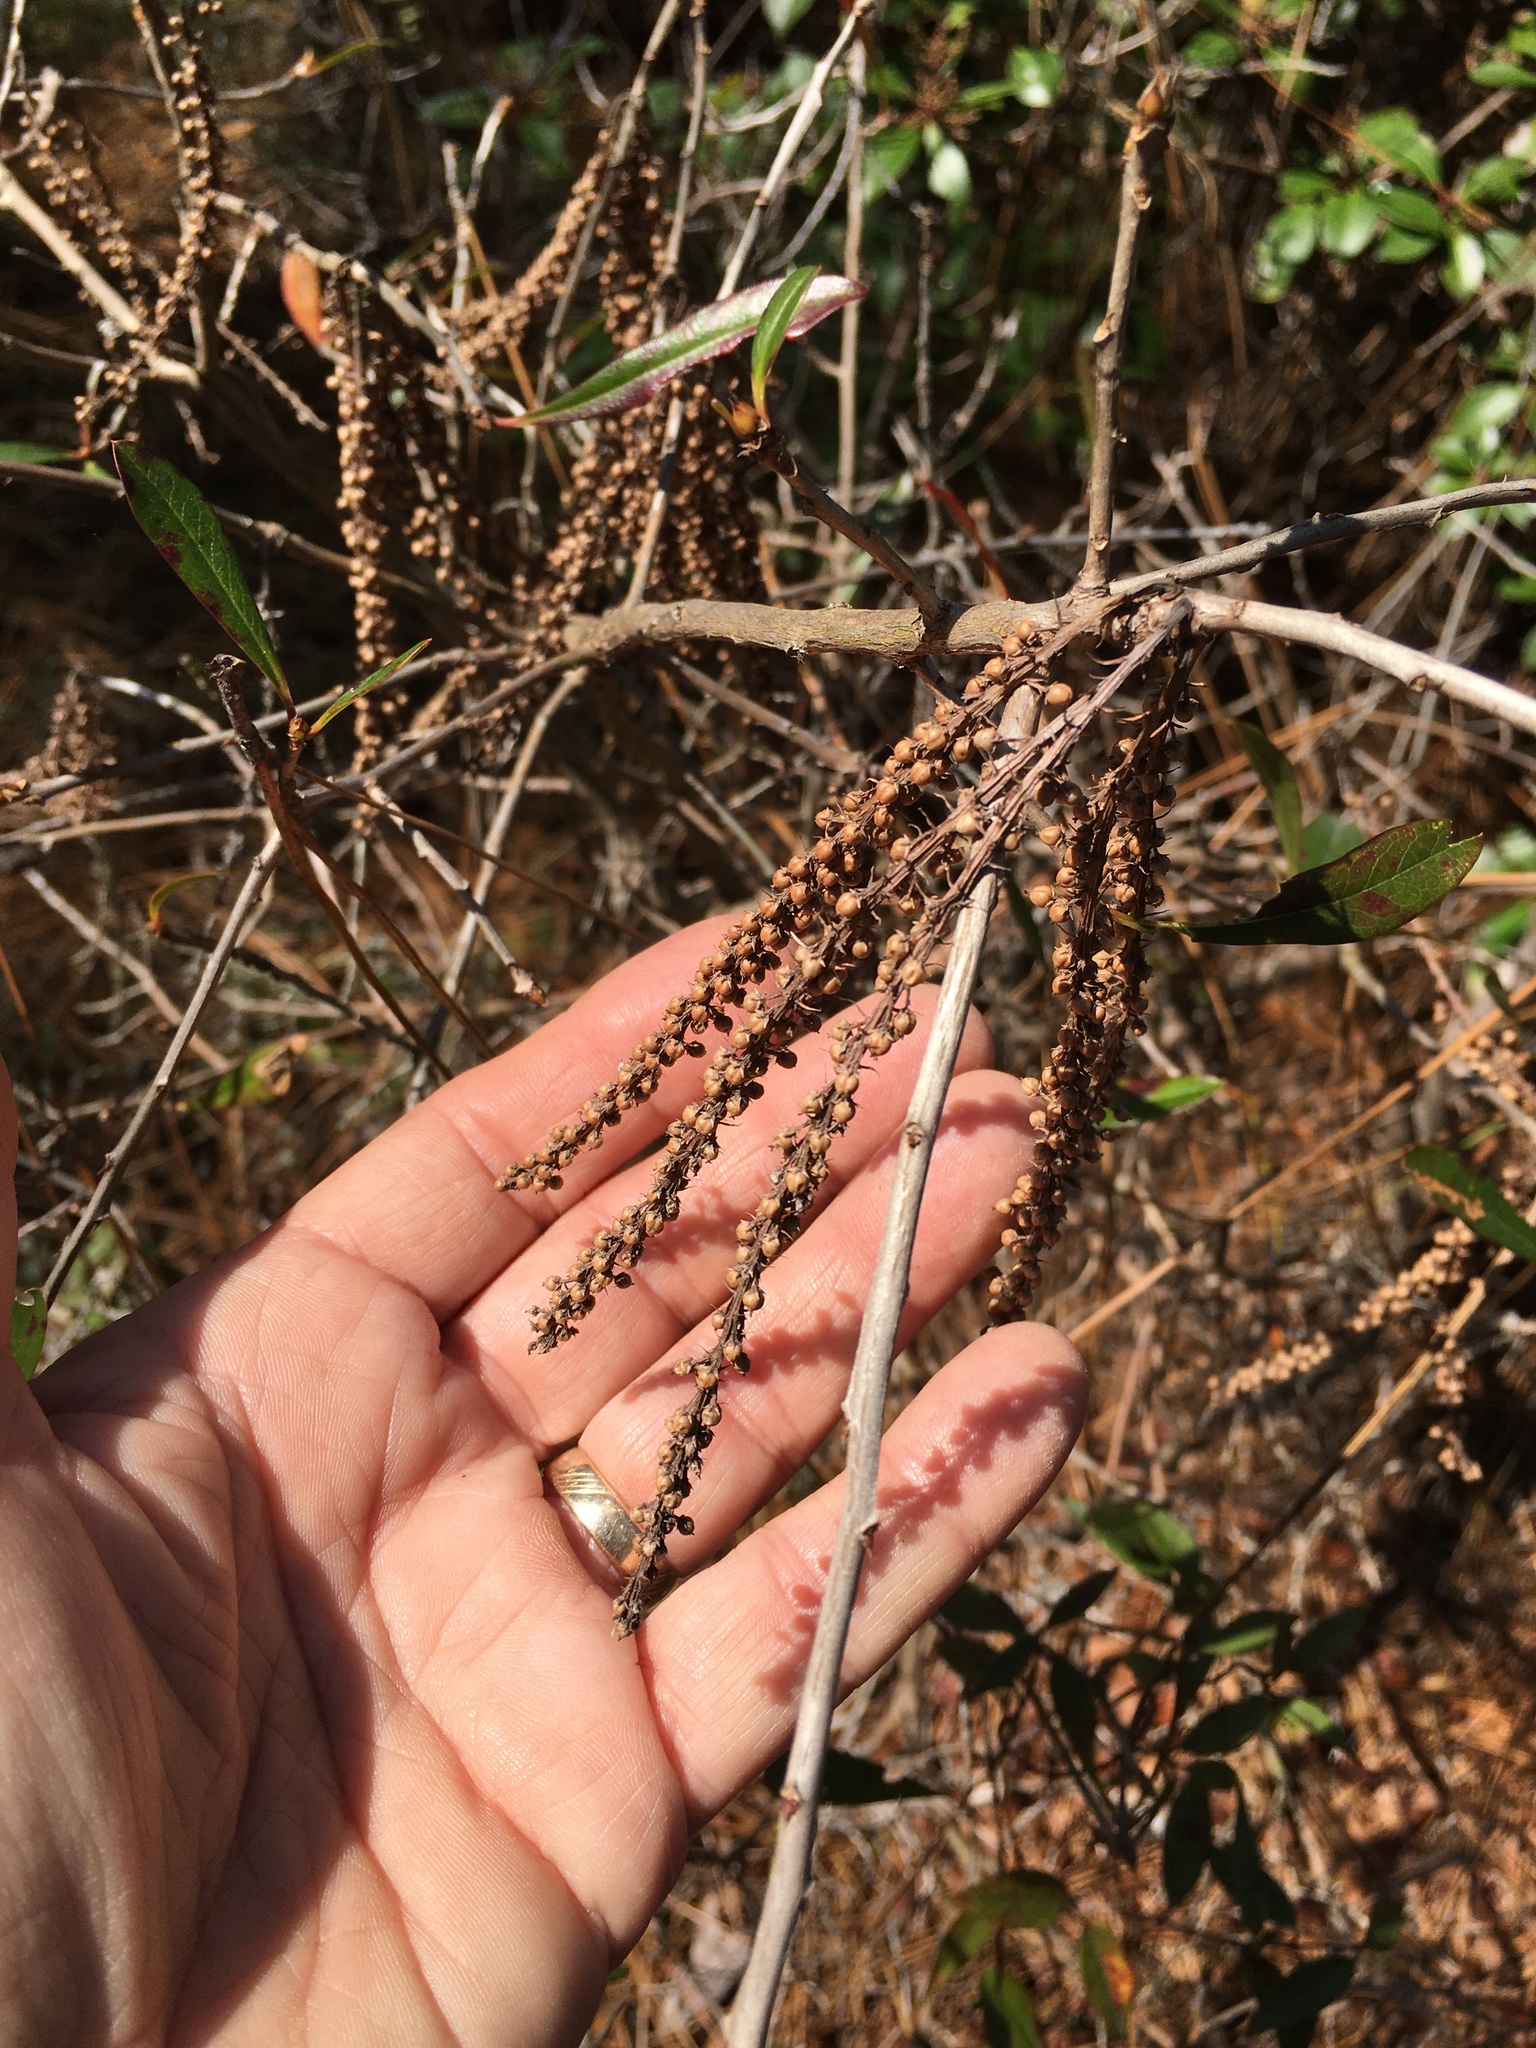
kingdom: Plantae
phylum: Tracheophyta
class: Magnoliopsida
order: Ericales
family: Cyrillaceae
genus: Cyrilla
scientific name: Cyrilla racemiflora
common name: Black titi
